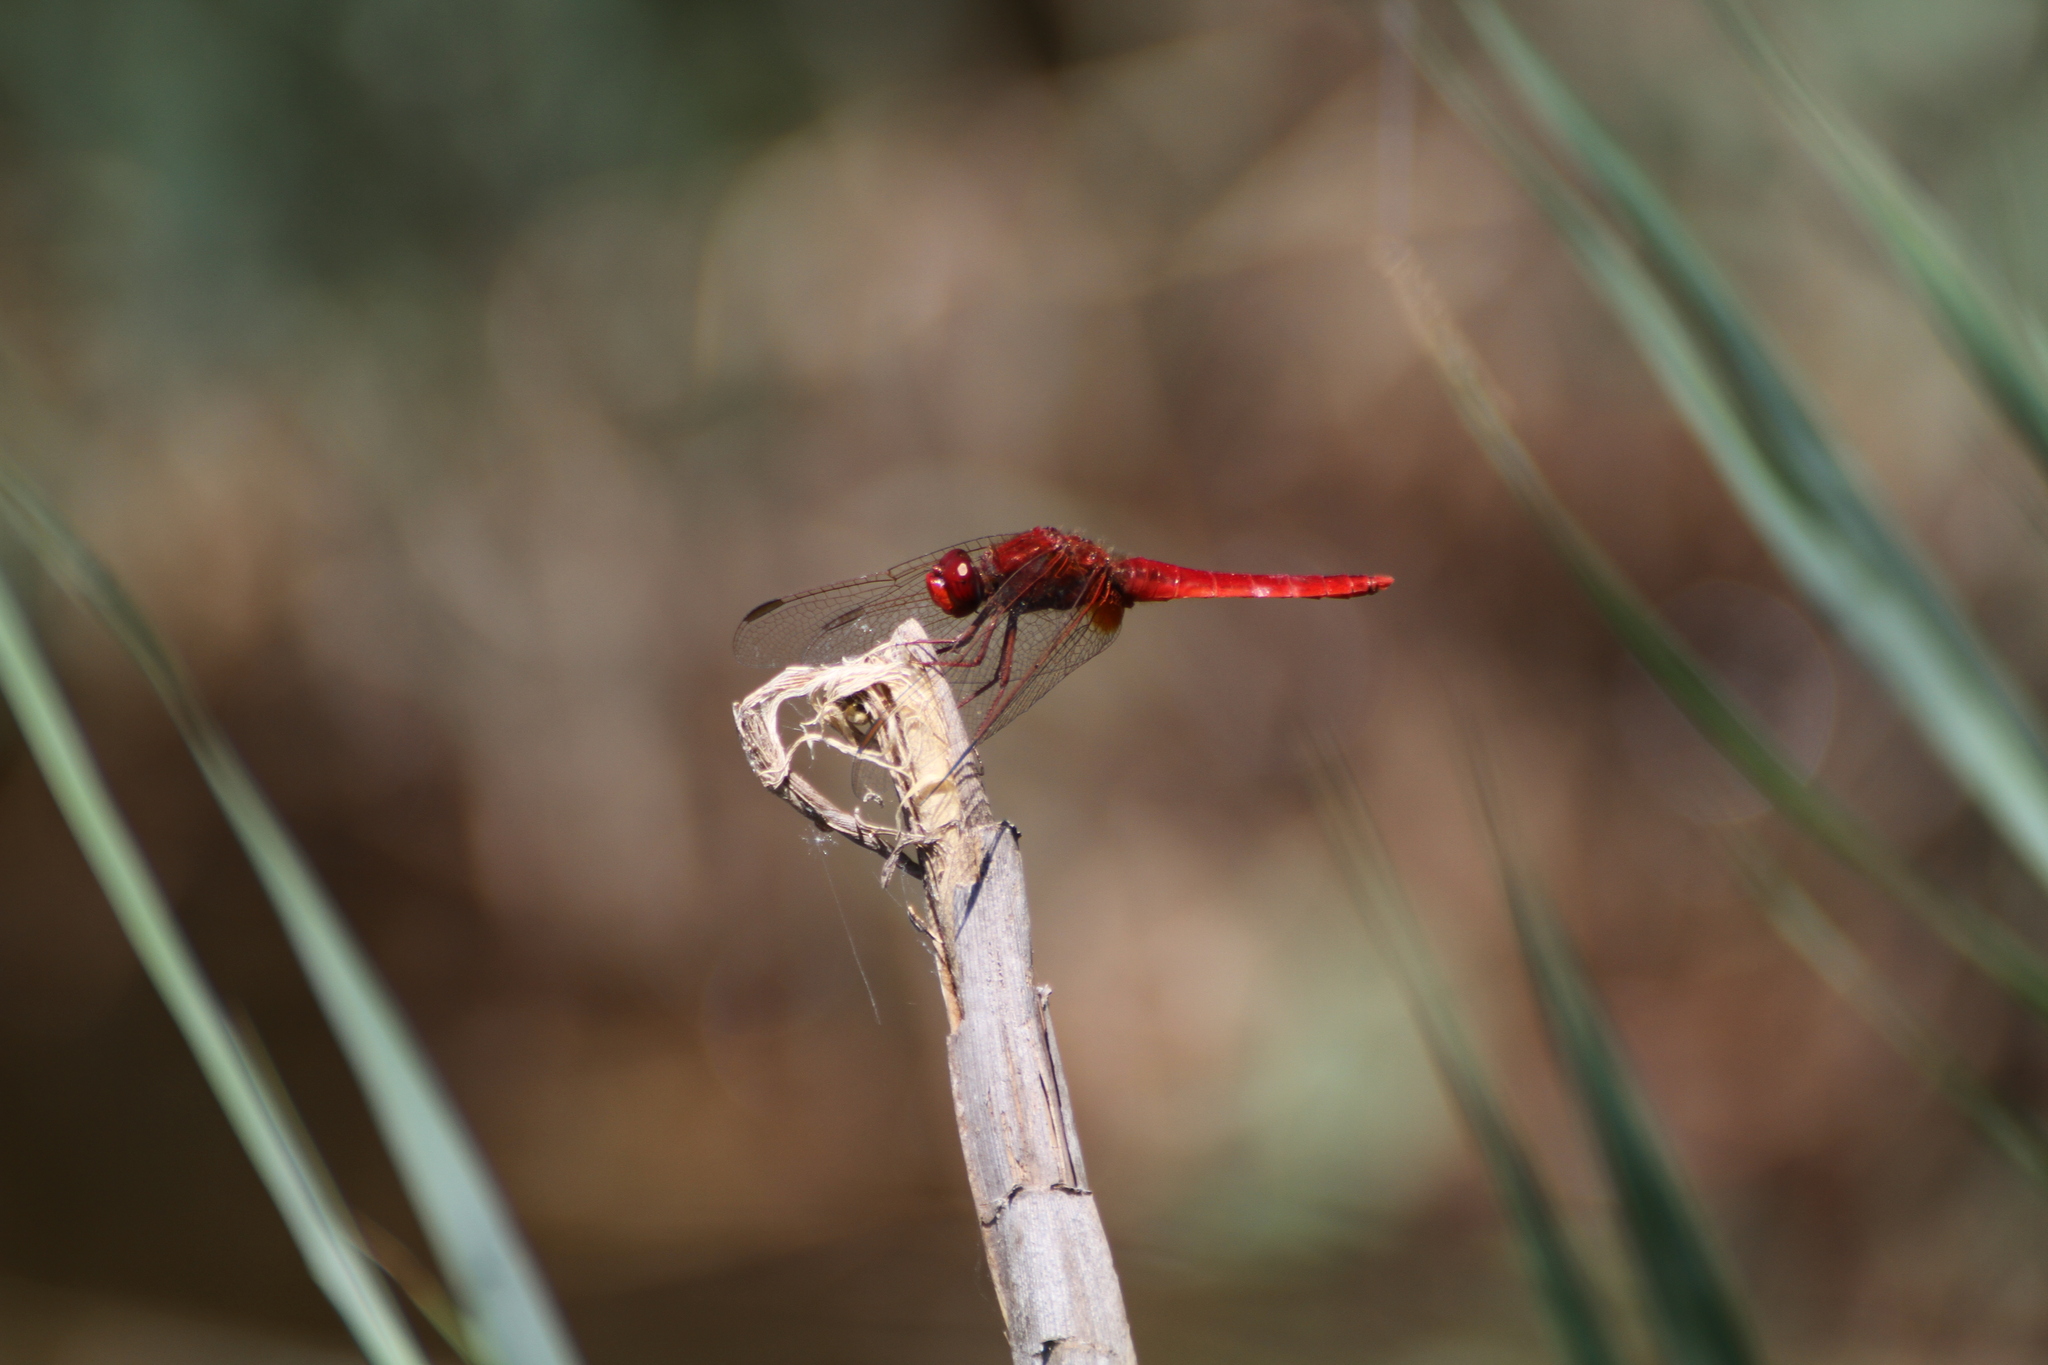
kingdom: Animalia
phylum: Arthropoda
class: Insecta
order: Odonata
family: Libellulidae
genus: Crocothemis
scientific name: Crocothemis erythraea
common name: Scarlet dragonfly
